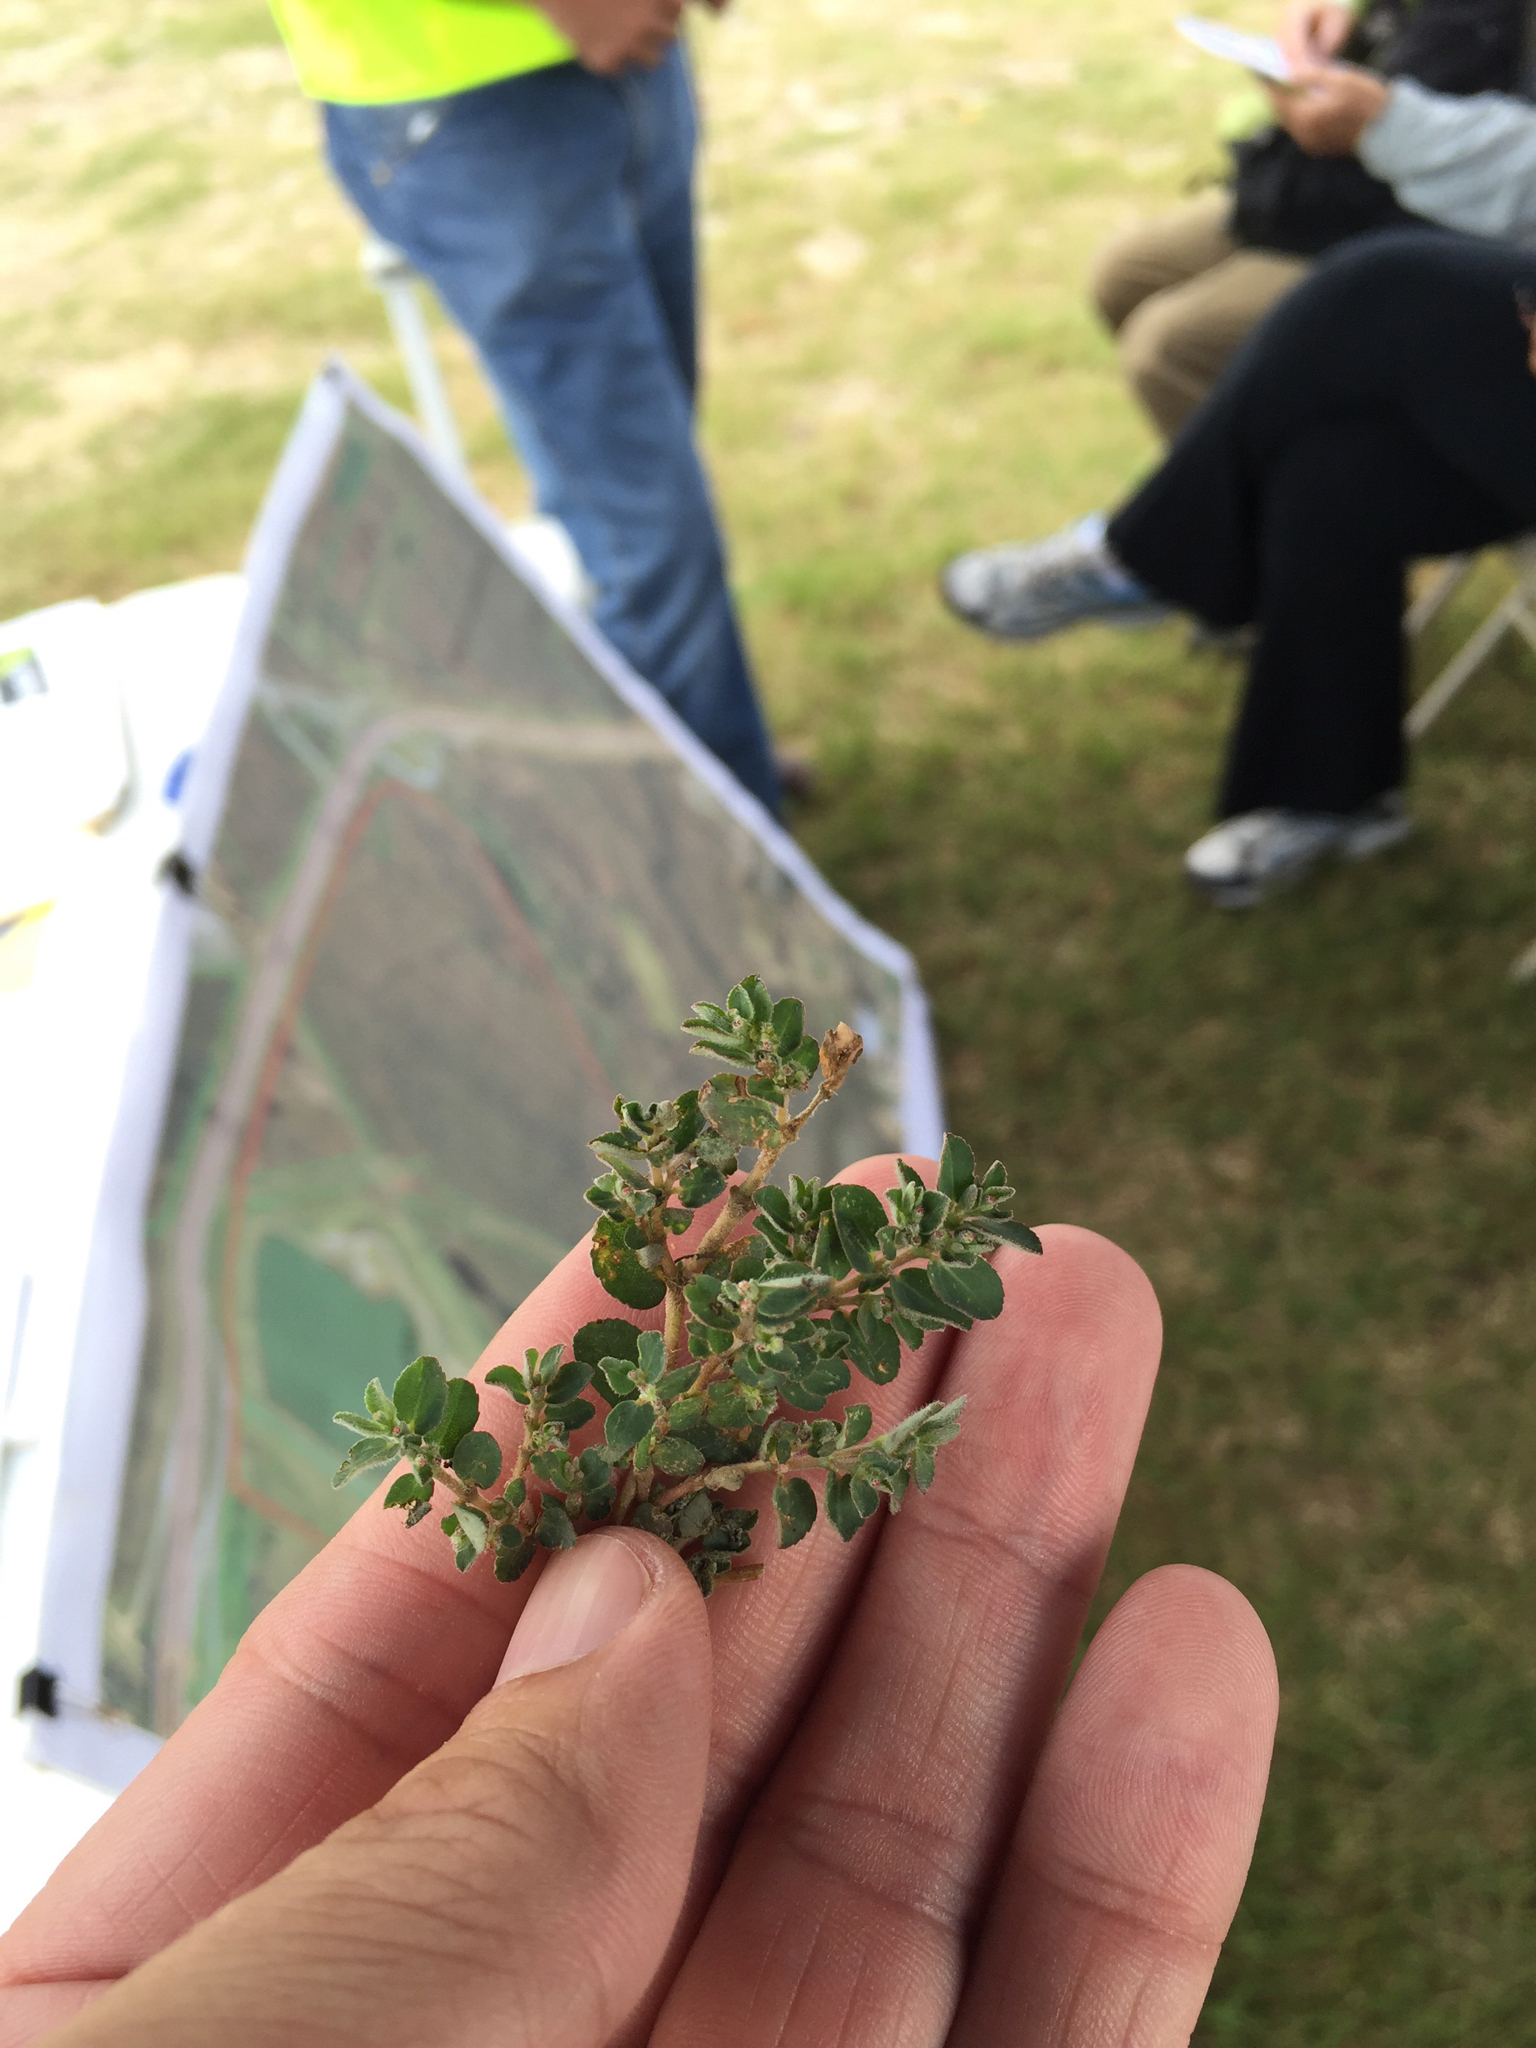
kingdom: Plantae
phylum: Tracheophyta
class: Magnoliopsida
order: Malpighiales
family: Euphorbiaceae
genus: Euphorbia
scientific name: Euphorbia prostrata
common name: Prostrate sandmat
